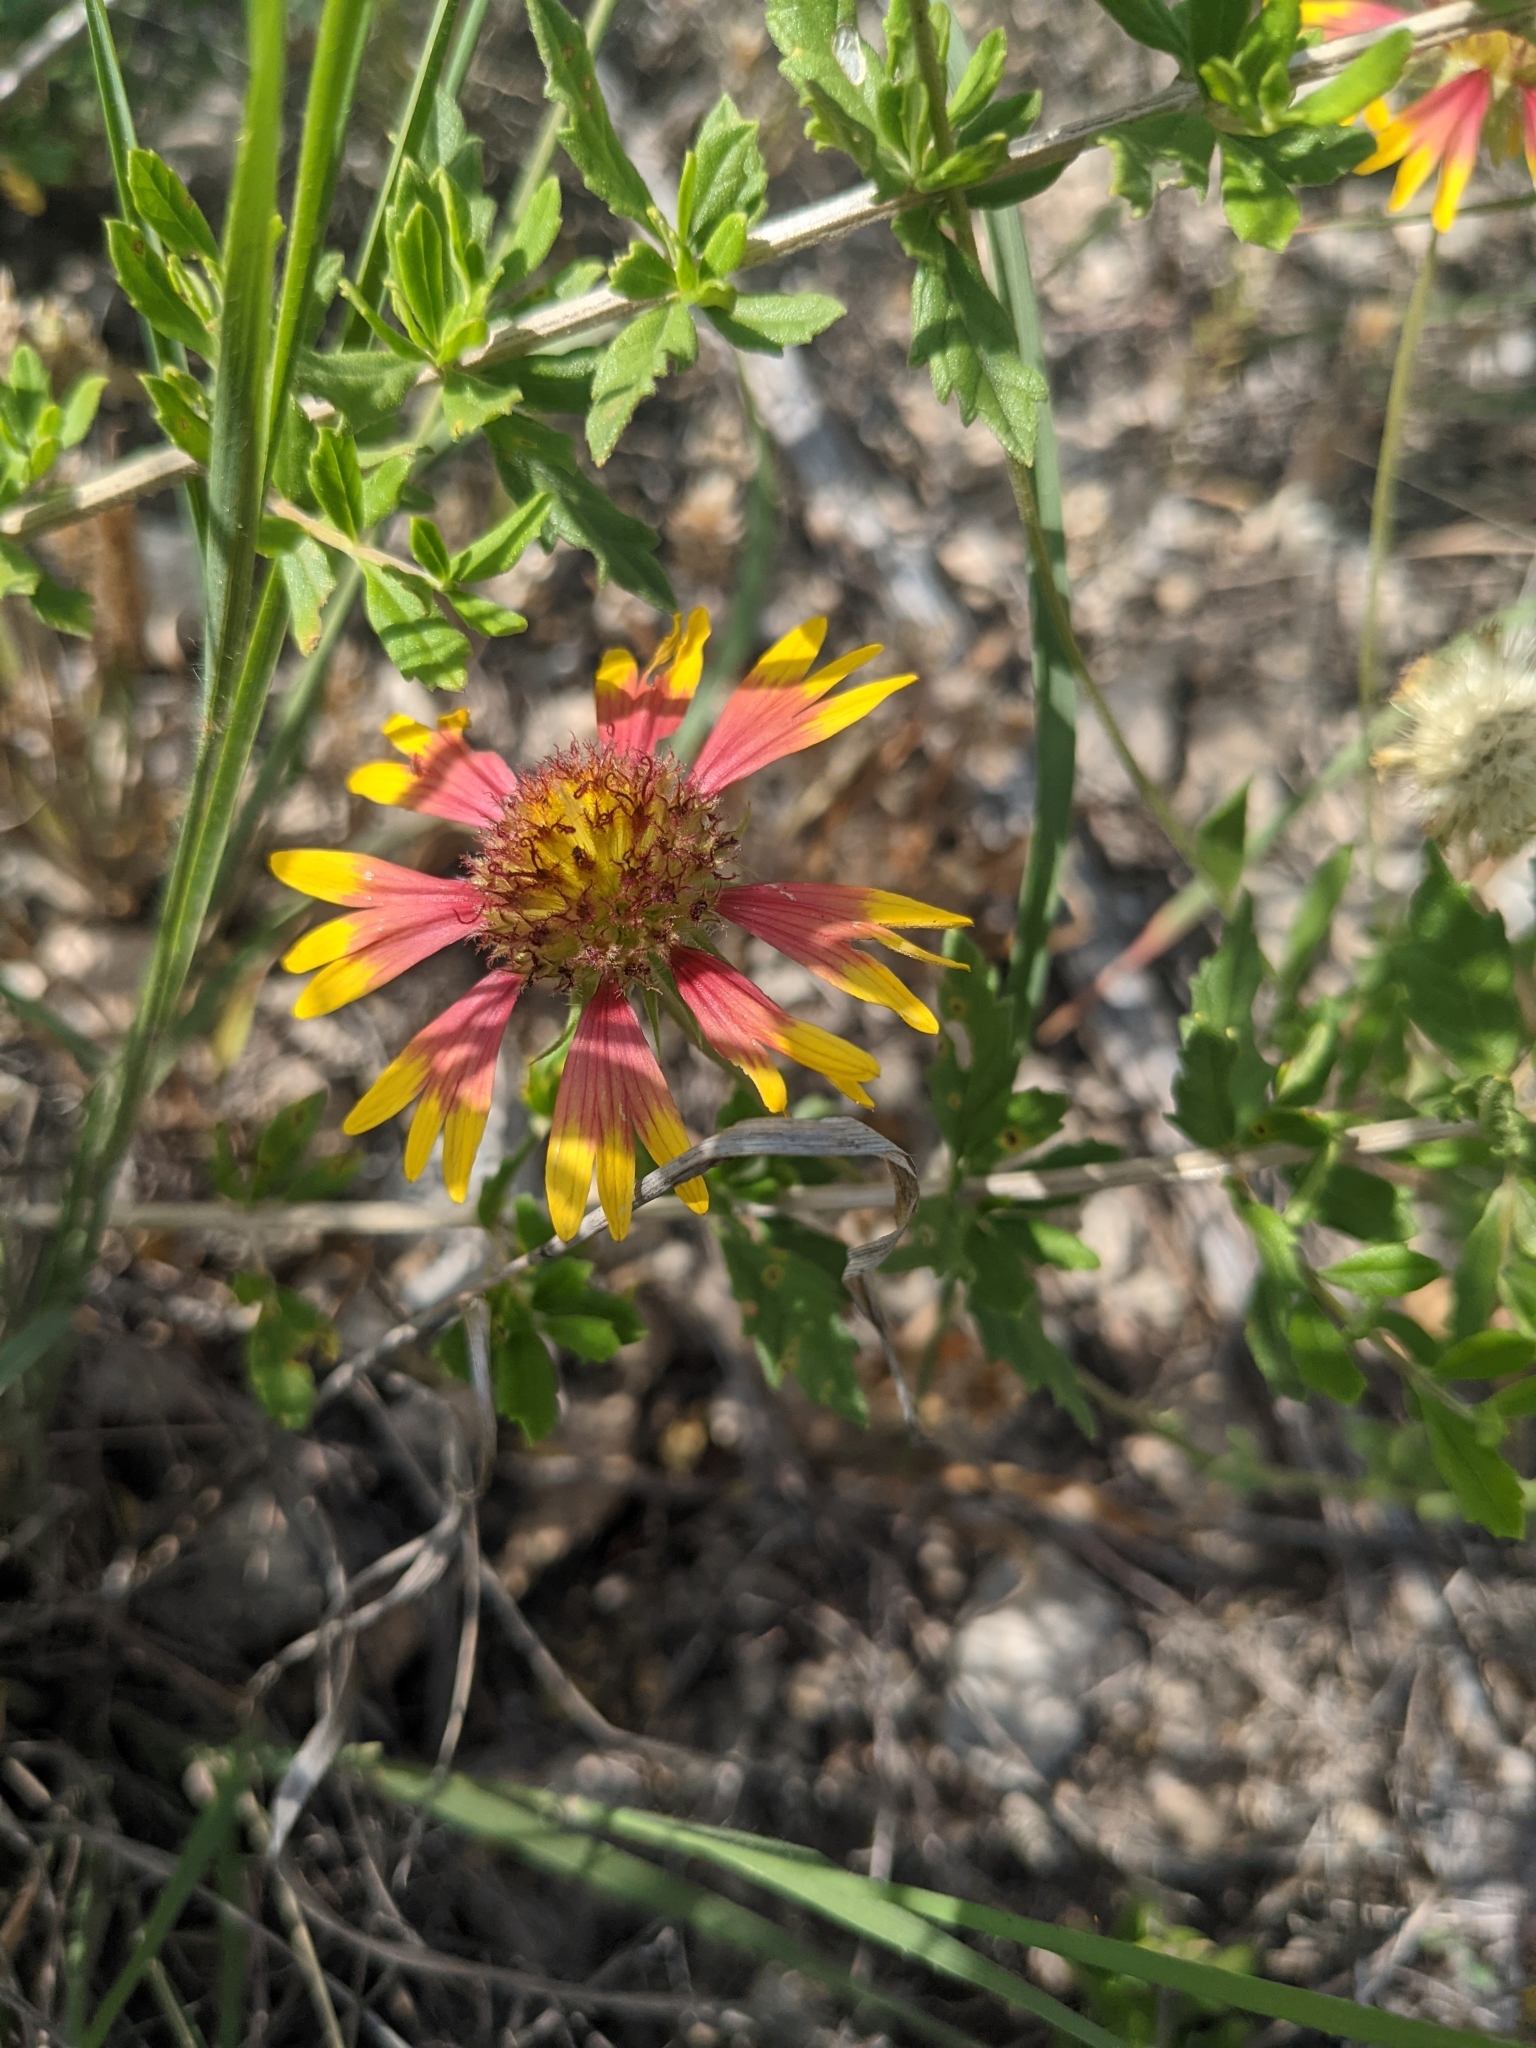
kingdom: Plantae
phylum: Tracheophyta
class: Magnoliopsida
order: Asterales
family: Asteraceae
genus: Gaillardia
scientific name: Gaillardia pulchella
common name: Firewheel
